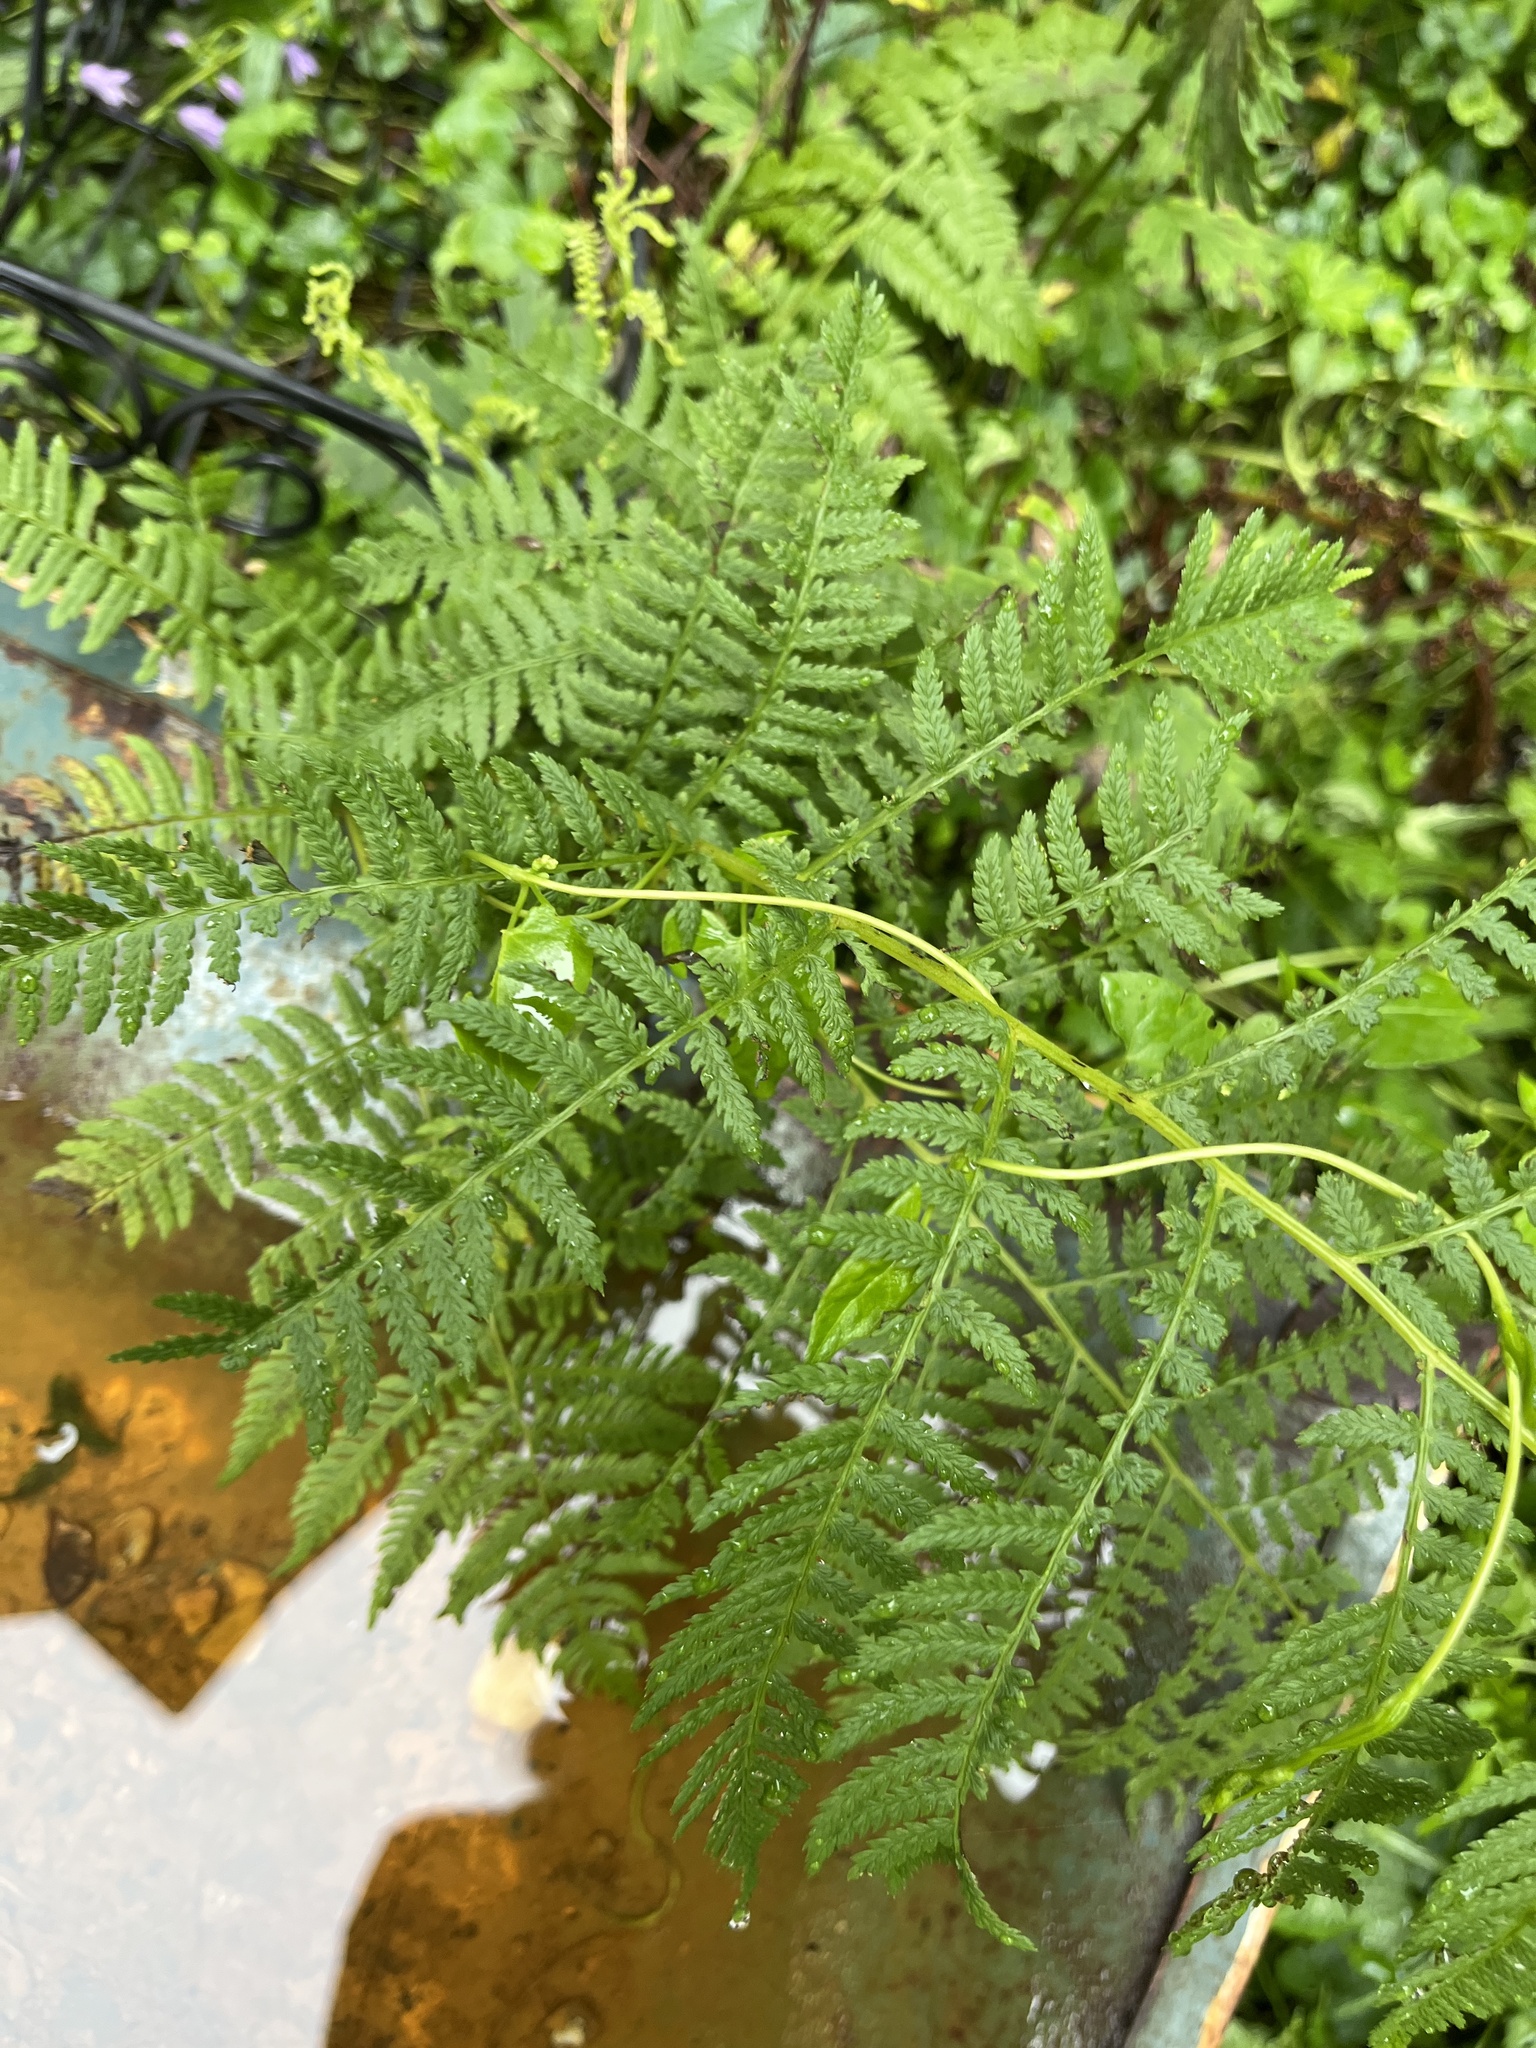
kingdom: Plantae
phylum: Tracheophyta
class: Polypodiopsida
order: Polypodiales
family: Athyriaceae
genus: Athyrium
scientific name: Athyrium angustum
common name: Northern lady fern
